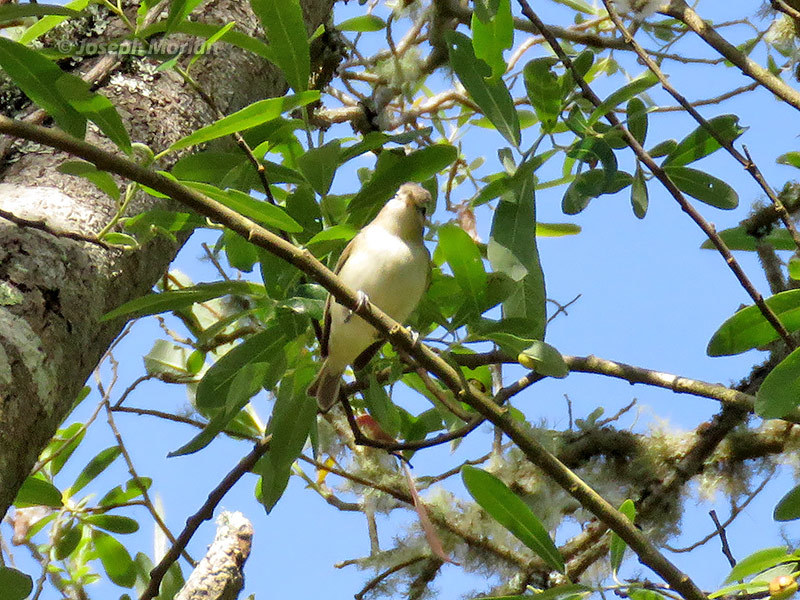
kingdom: Animalia
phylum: Chordata
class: Aves
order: Passeriformes
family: Vireonidae
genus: Vireo
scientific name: Vireo gilvus
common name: Warbling vireo
